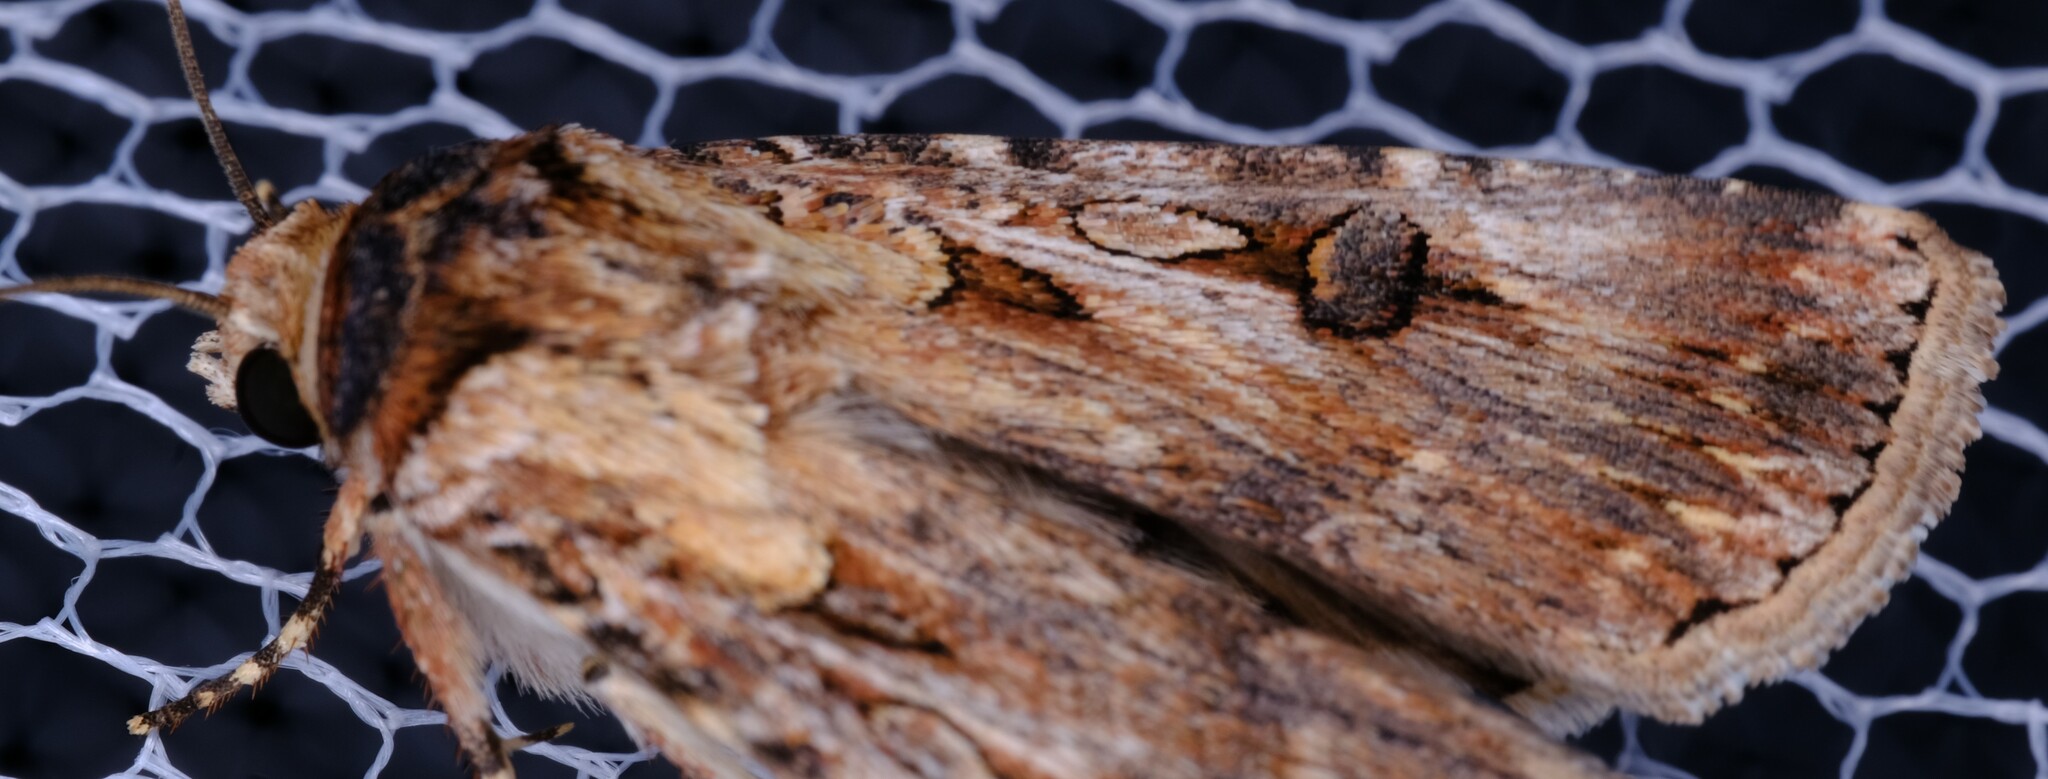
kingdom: Animalia
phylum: Arthropoda
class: Insecta
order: Lepidoptera
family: Noctuidae
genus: Agrotis
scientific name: Agrotis munda
